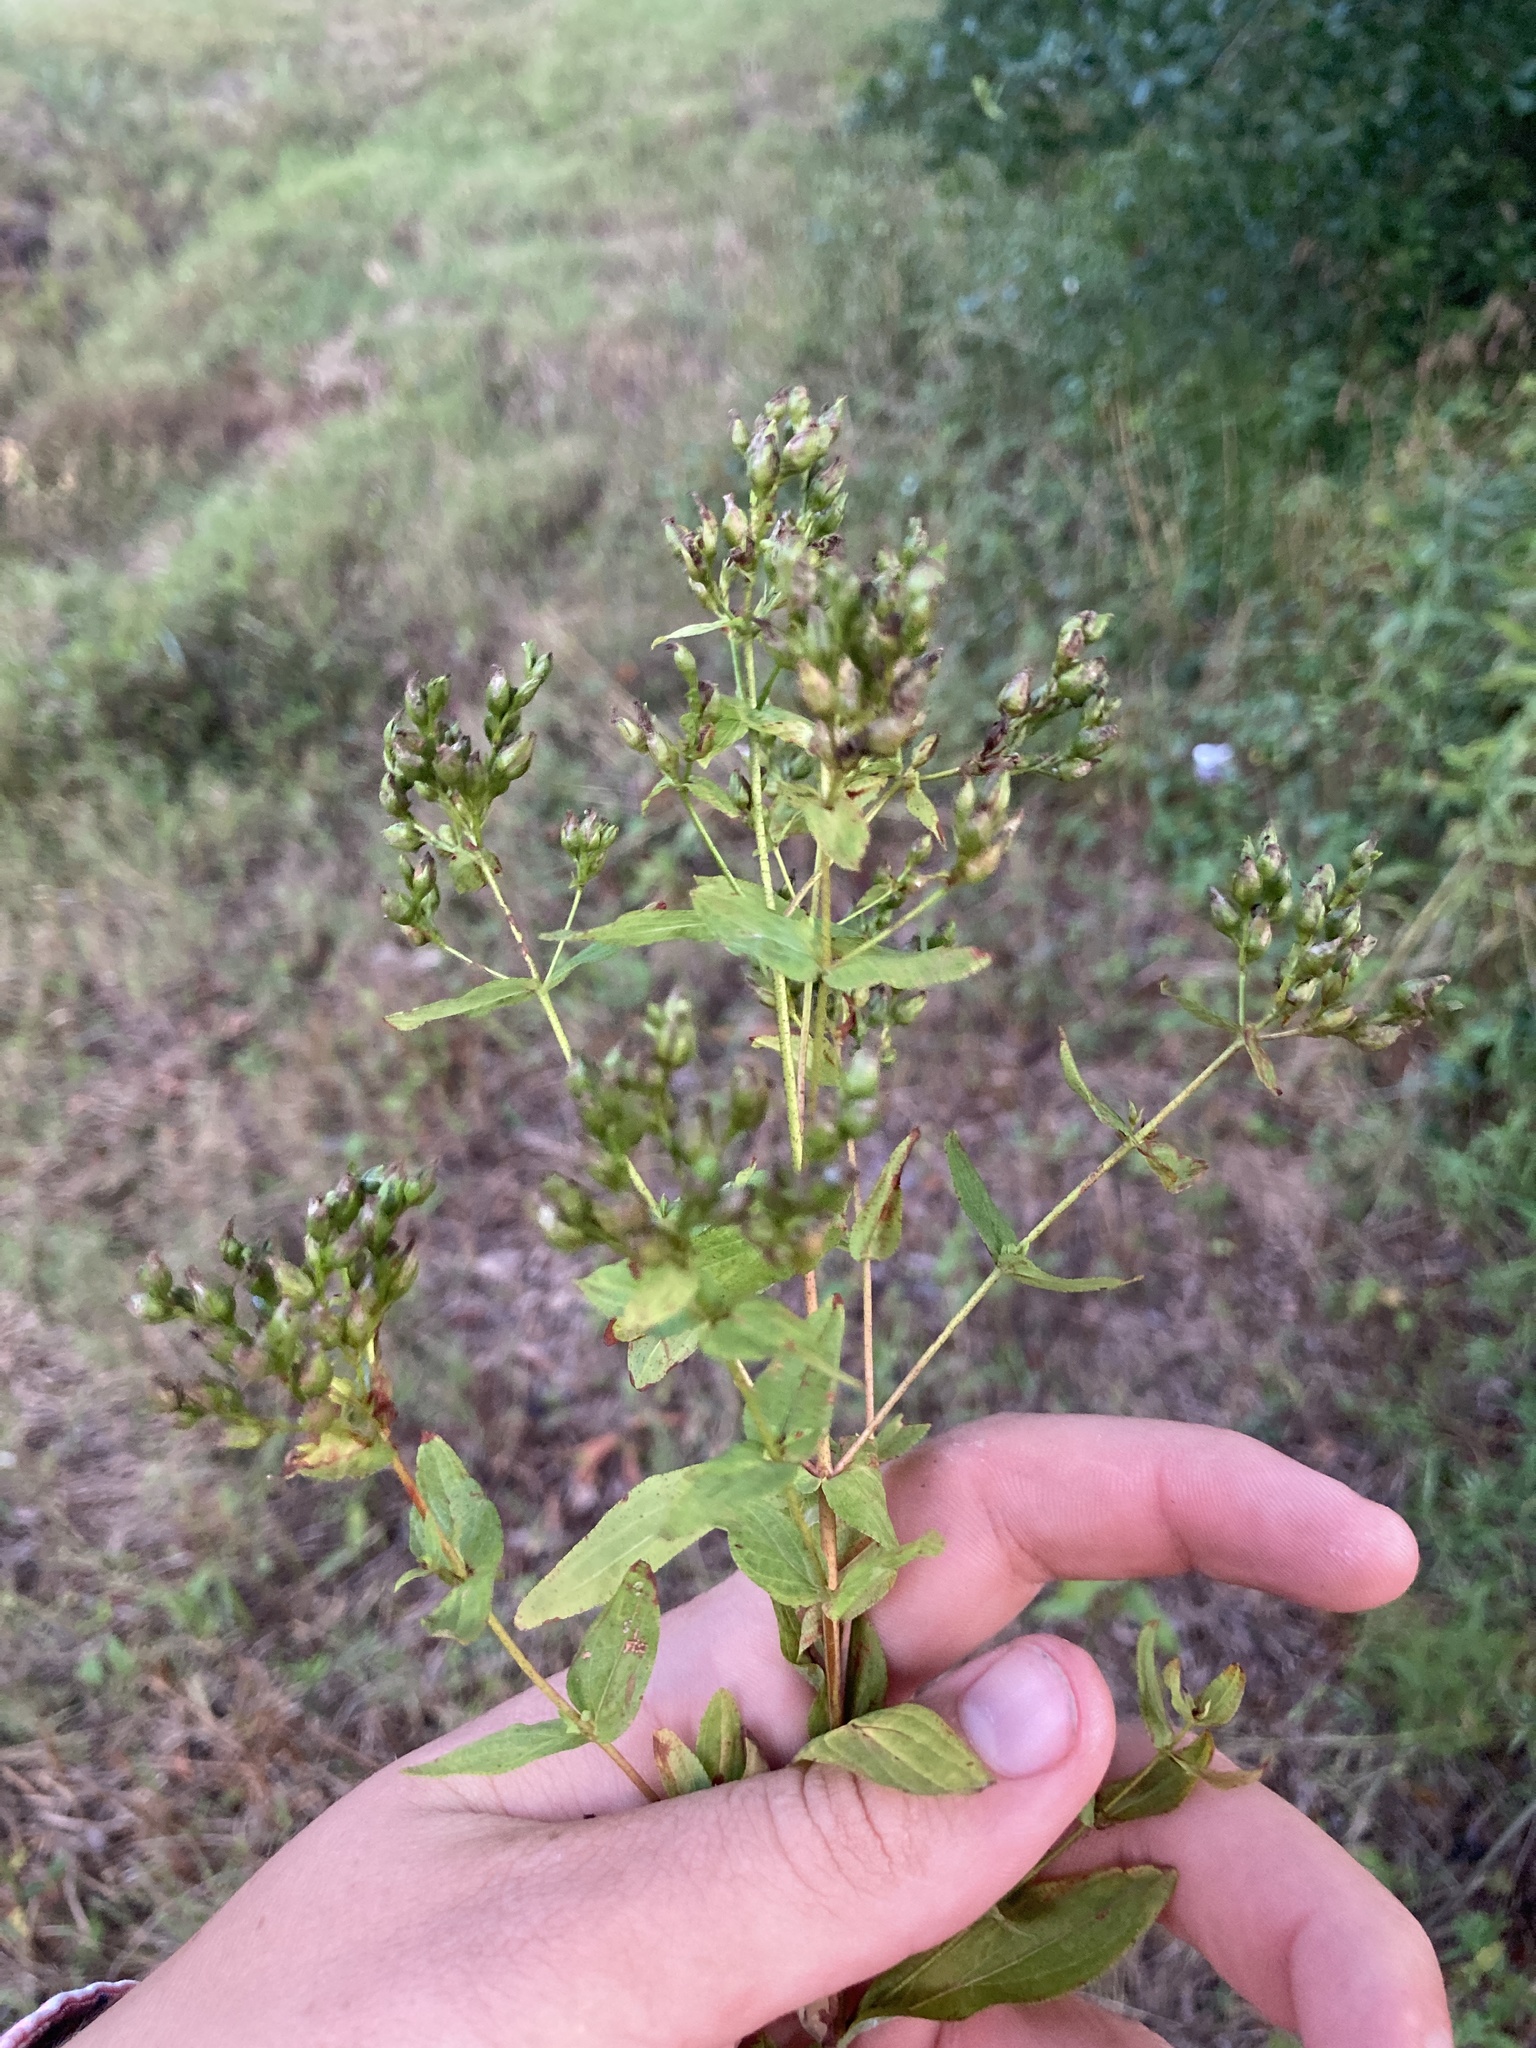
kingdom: Plantae
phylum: Tracheophyta
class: Magnoliopsida
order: Malpighiales
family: Hypericaceae
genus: Hypericum
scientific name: Hypericum punctatum
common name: Spotted st. john's-wort
